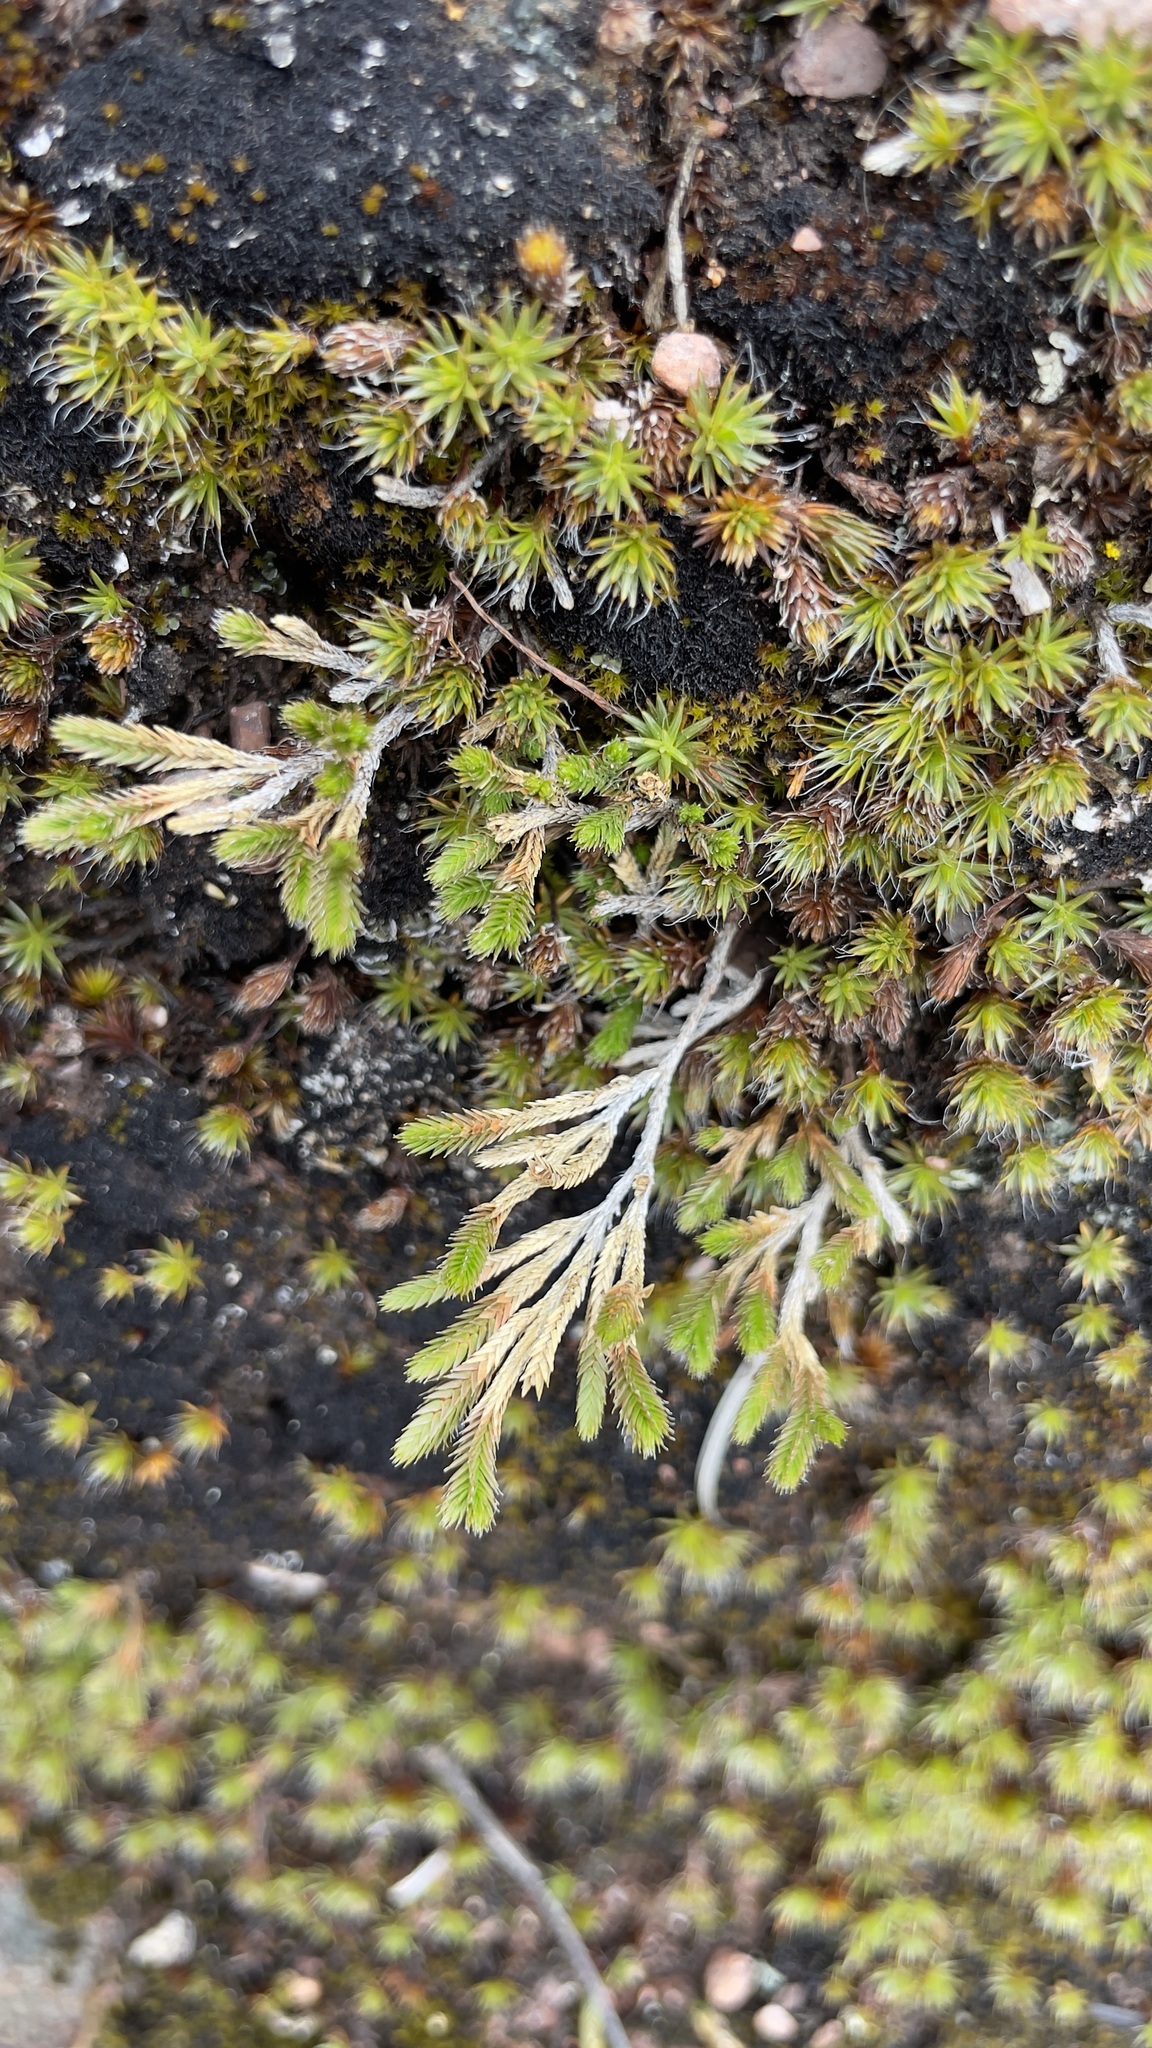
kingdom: Plantae
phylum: Tracheophyta
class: Lycopodiopsida
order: Selaginellales
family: Selaginellaceae
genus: Selaginella
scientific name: Selaginella bigelovii
